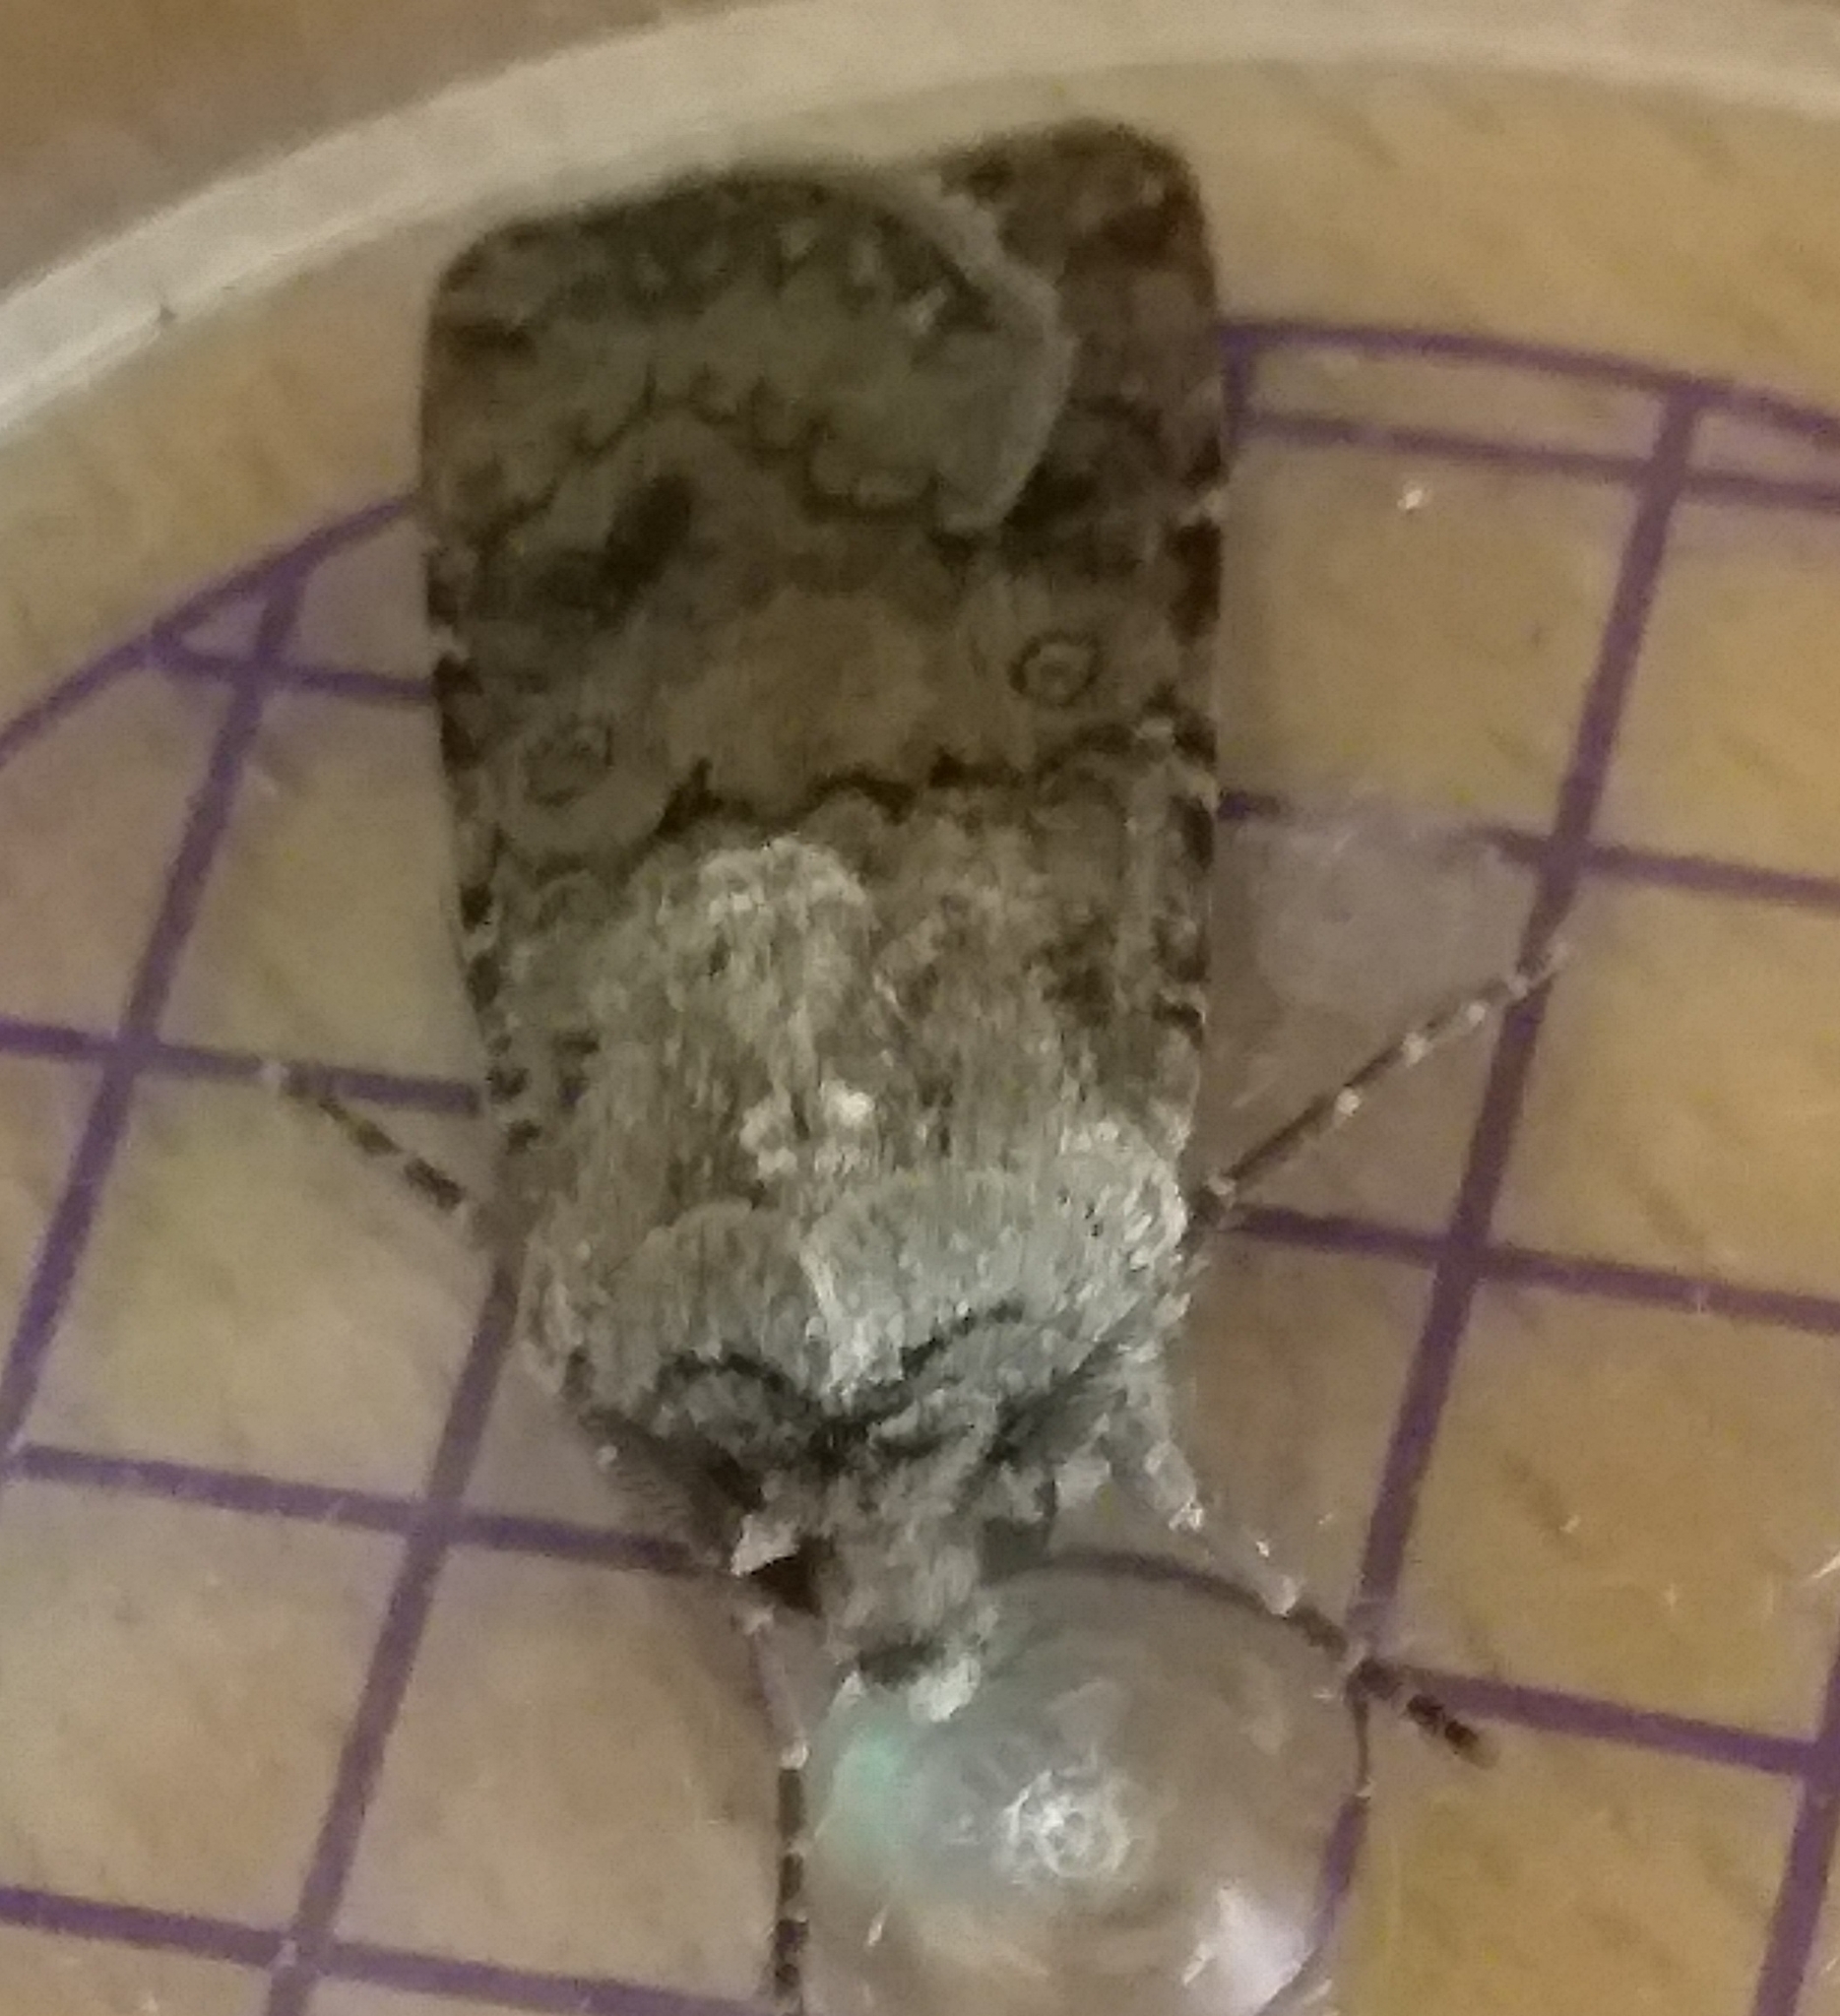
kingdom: Animalia
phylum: Arthropoda
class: Insecta
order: Lepidoptera
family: Noctuidae
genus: Agrotis
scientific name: Agrotis segetum
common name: Turnip moth
